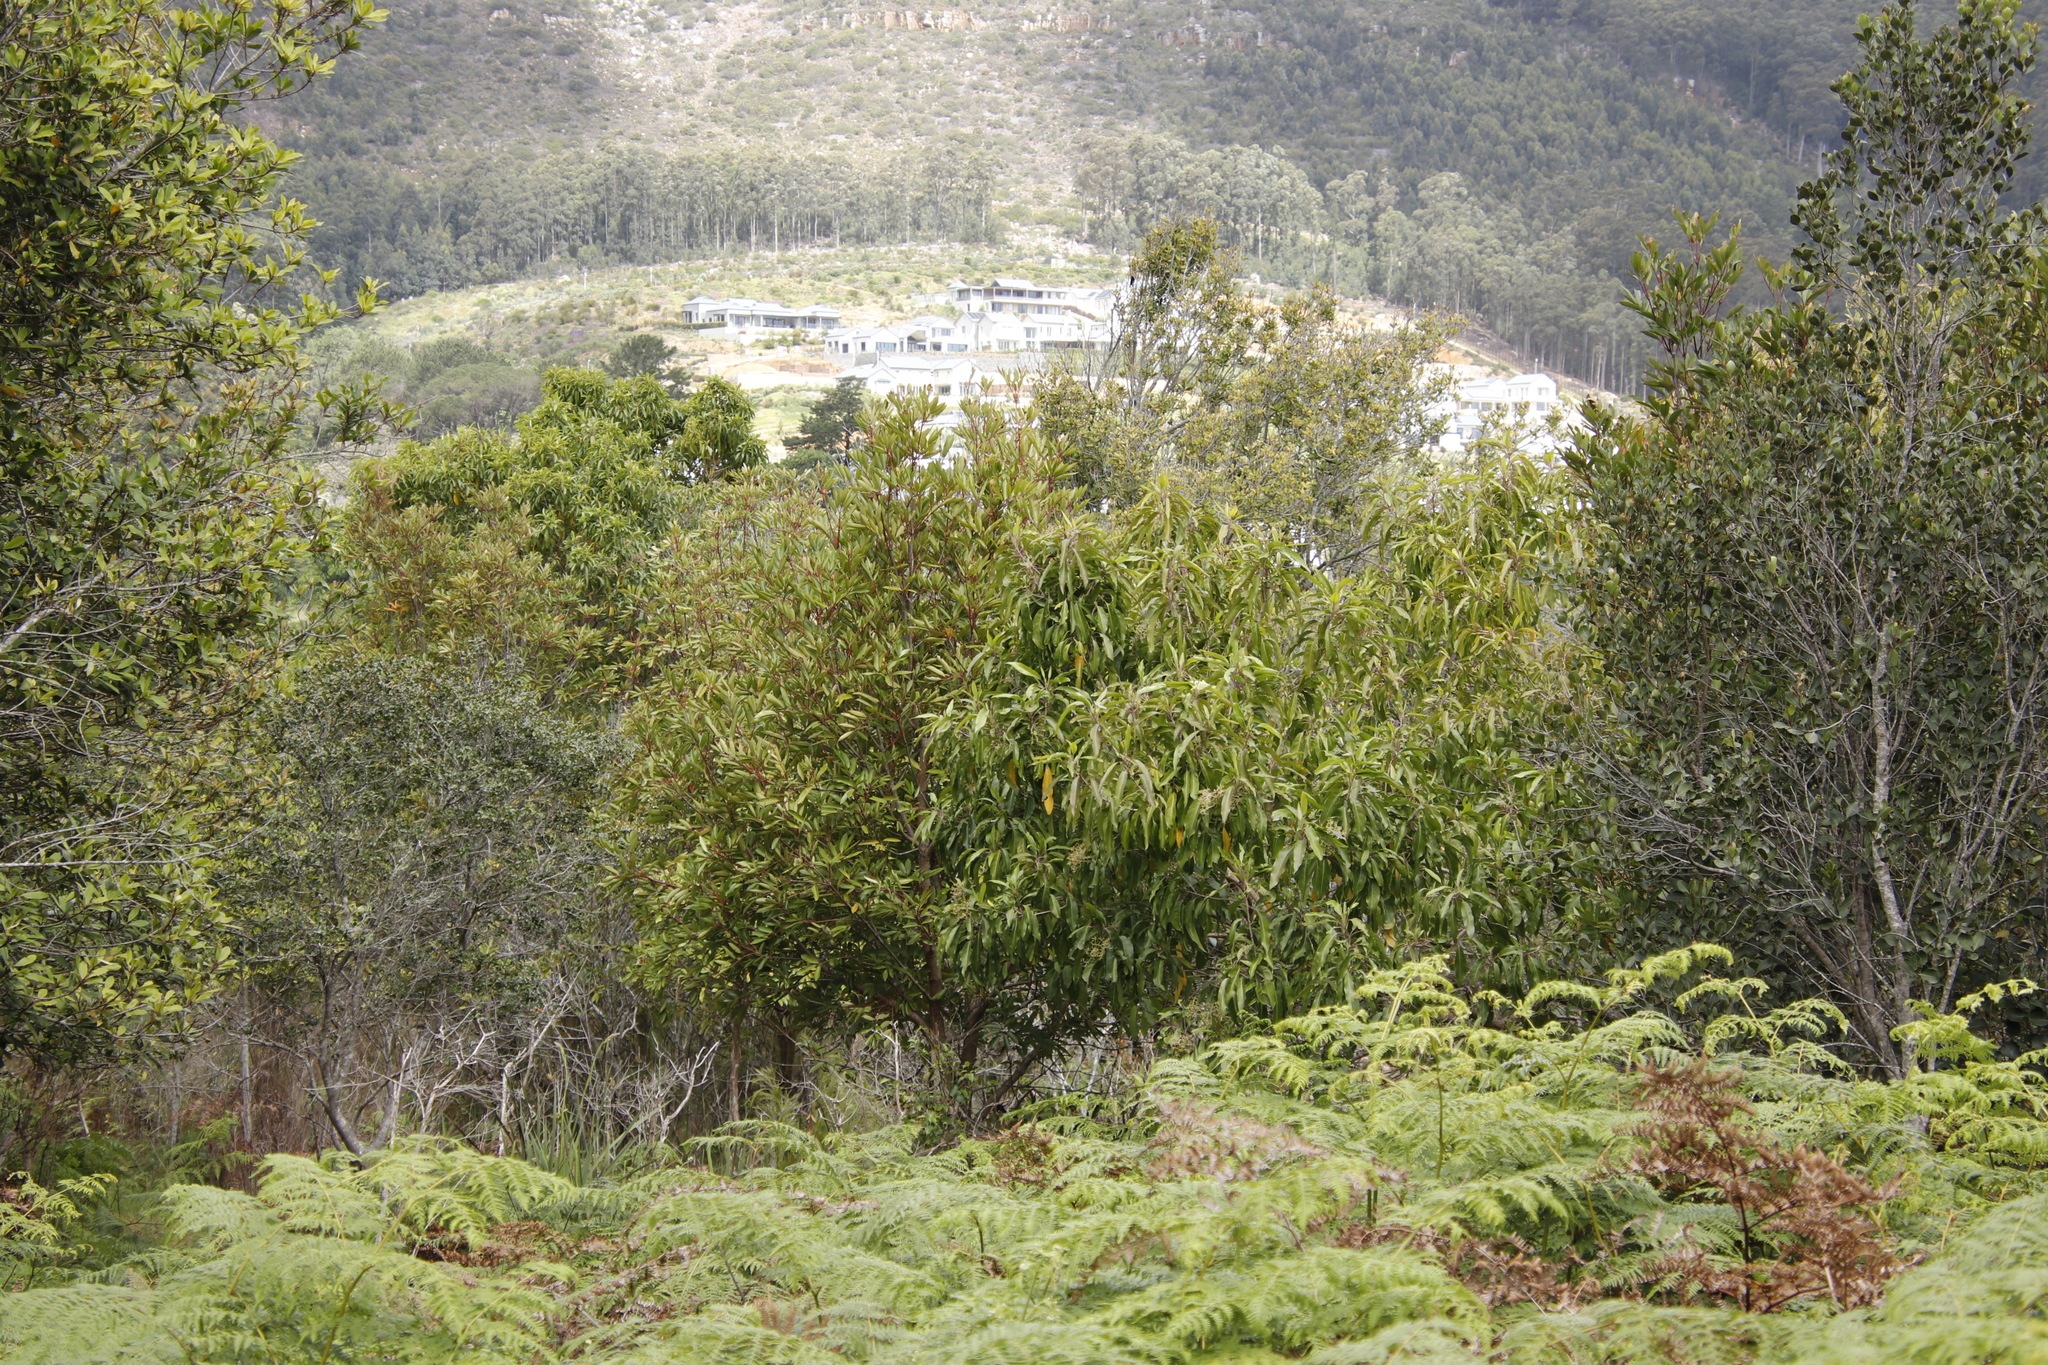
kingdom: Plantae
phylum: Tracheophyta
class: Magnoliopsida
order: Oxalidales
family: Cunoniaceae
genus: Cunonia
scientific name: Cunonia capensis
